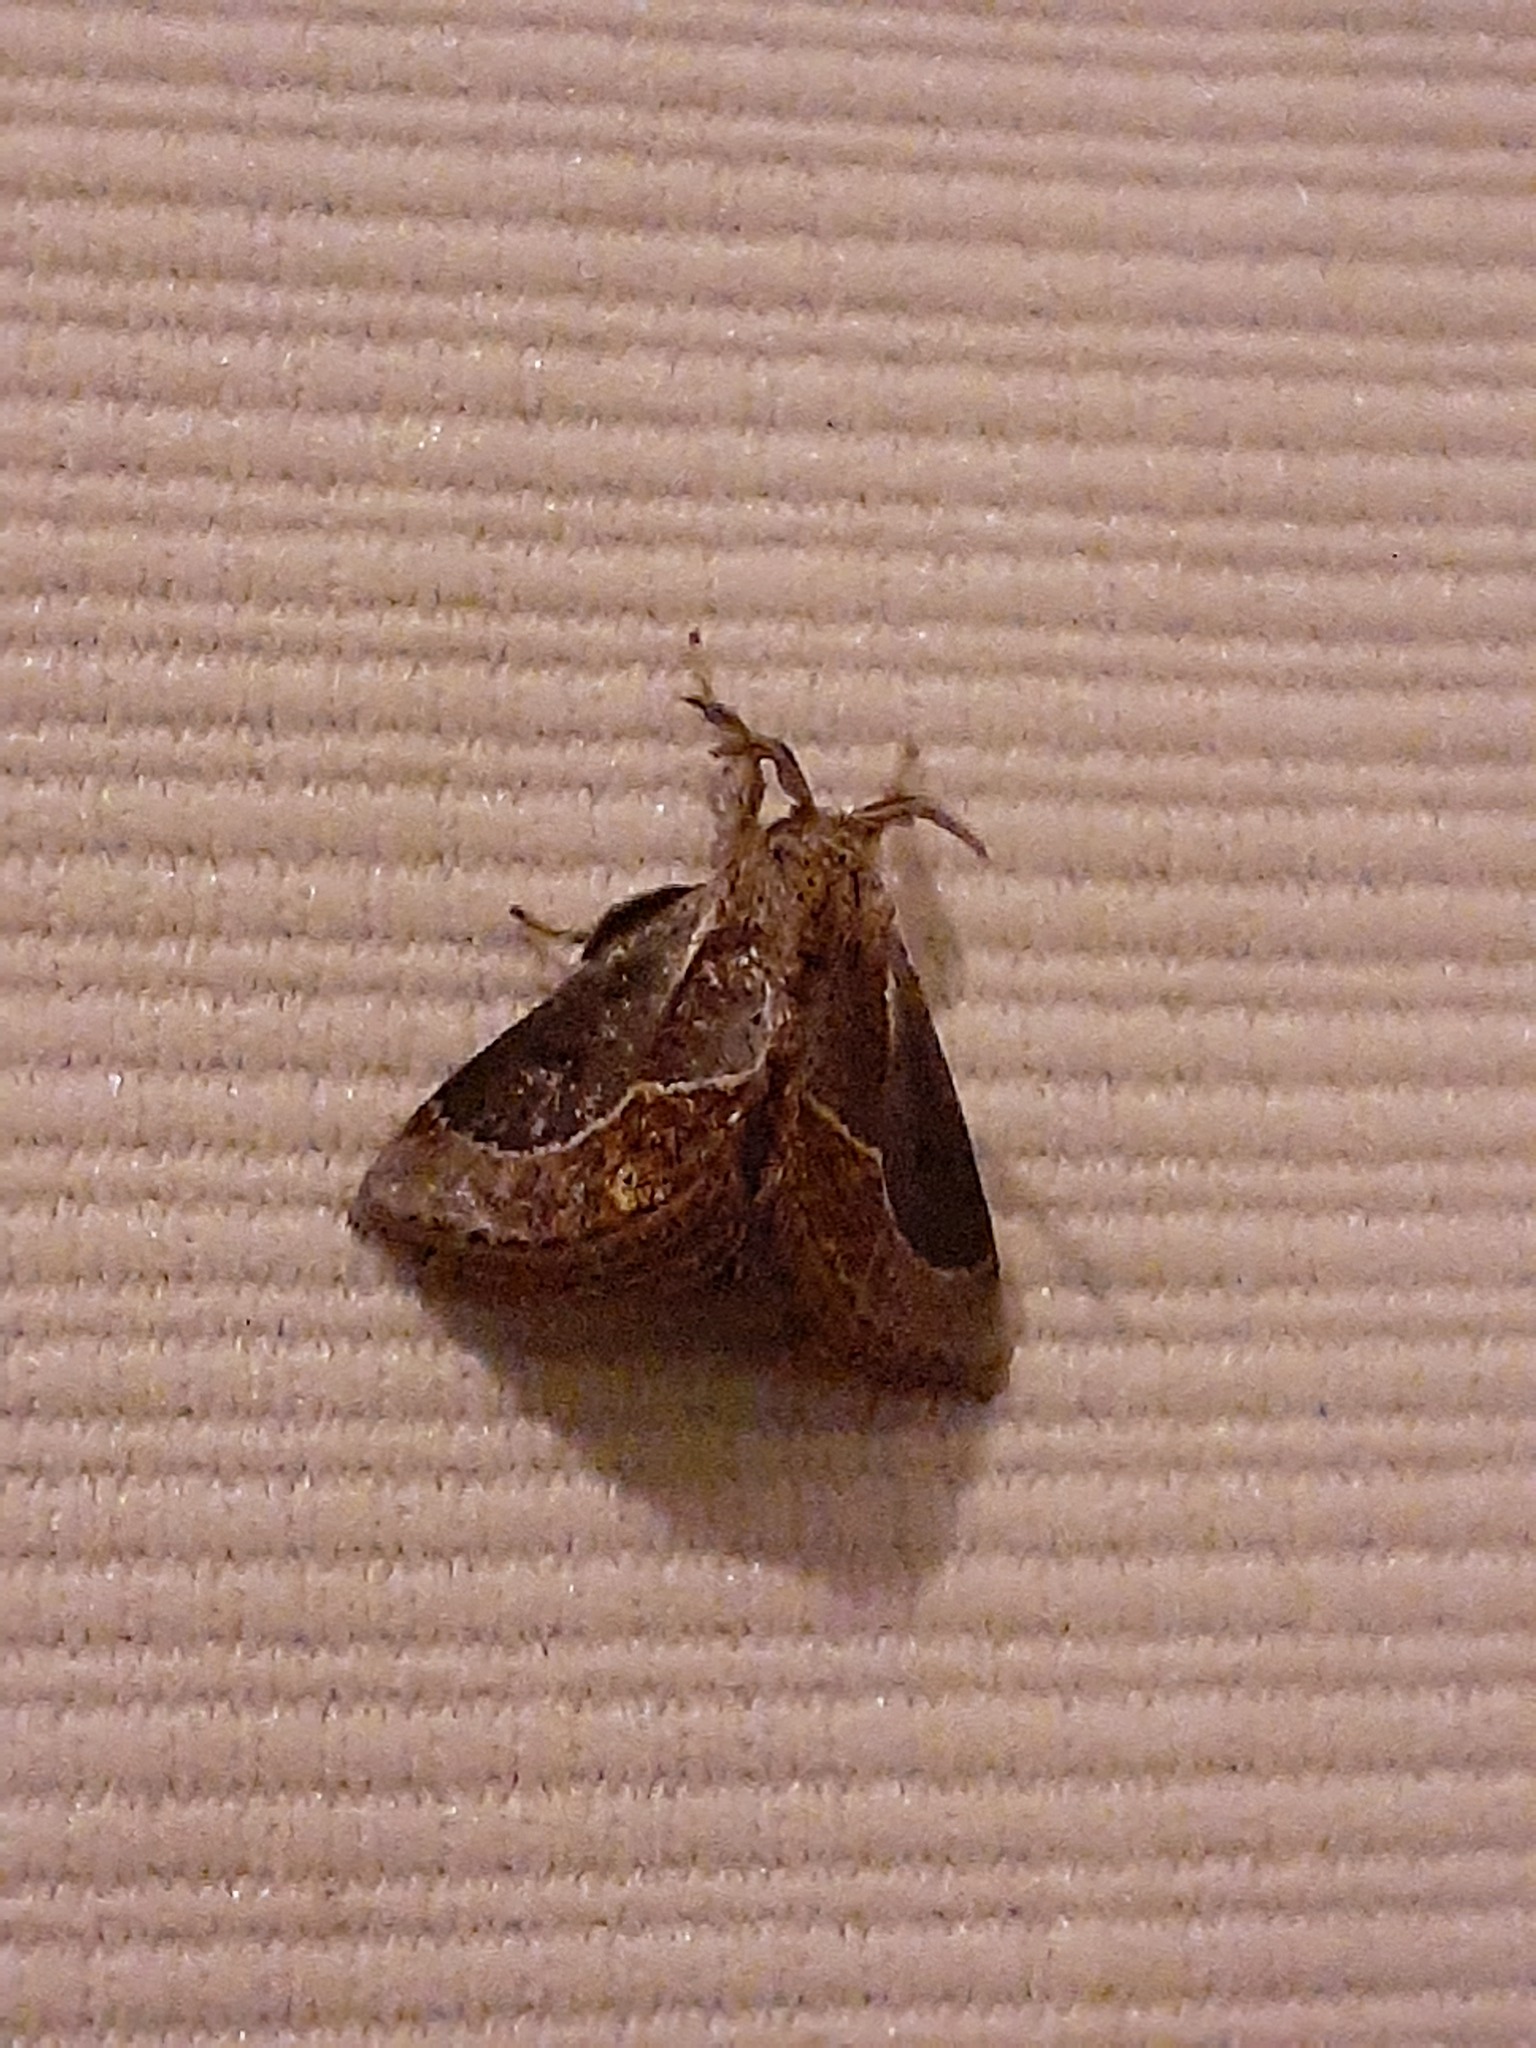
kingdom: Animalia
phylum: Arthropoda
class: Insecta
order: Lepidoptera
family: Limacodidae
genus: Epiperola
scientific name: Epiperola peluda
